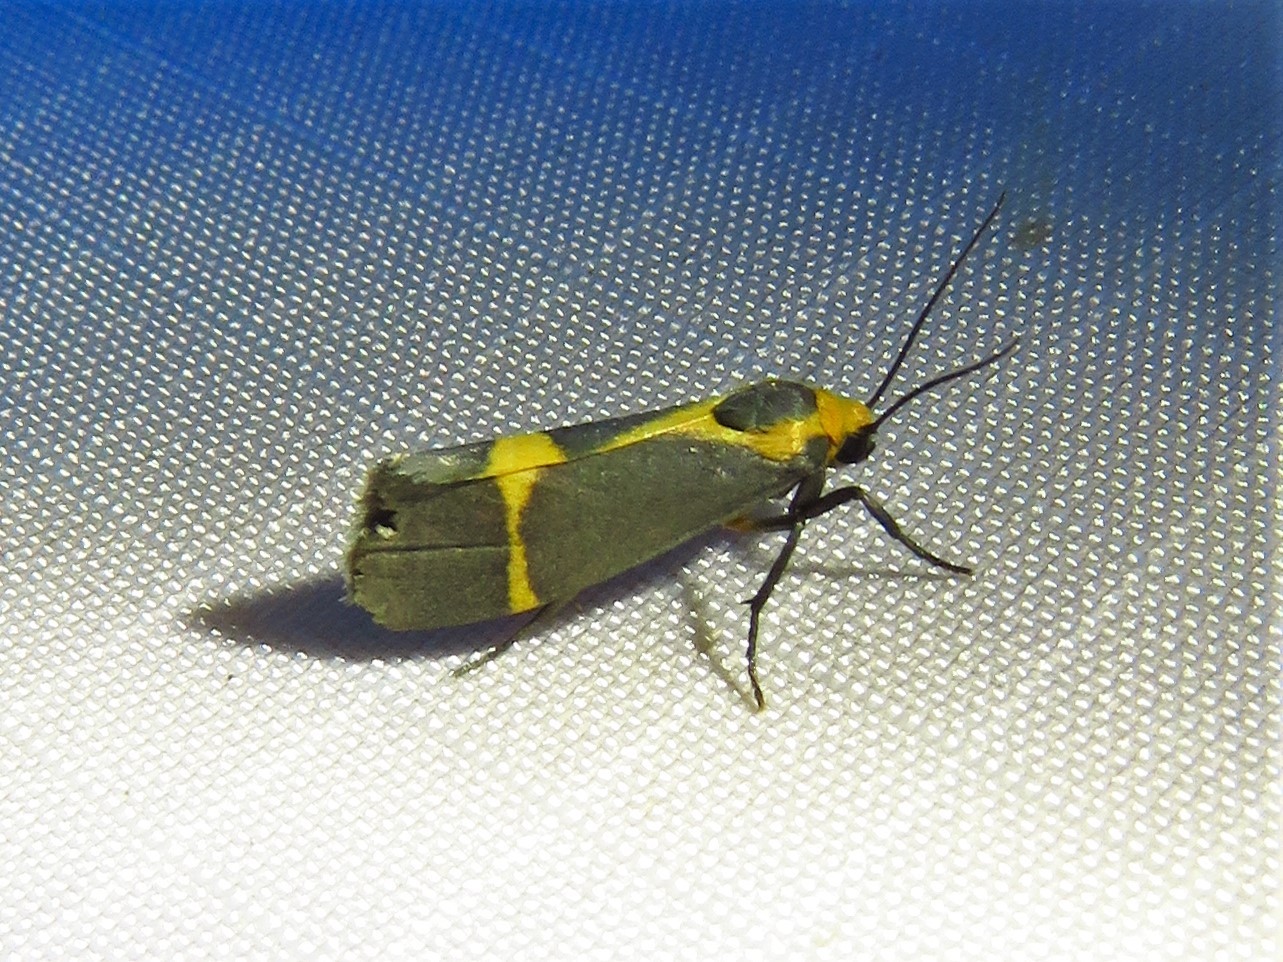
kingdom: Animalia
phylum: Arthropoda
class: Insecta
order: Lepidoptera
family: Erebidae
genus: Cisthene
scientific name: Cisthene tenuifascia
